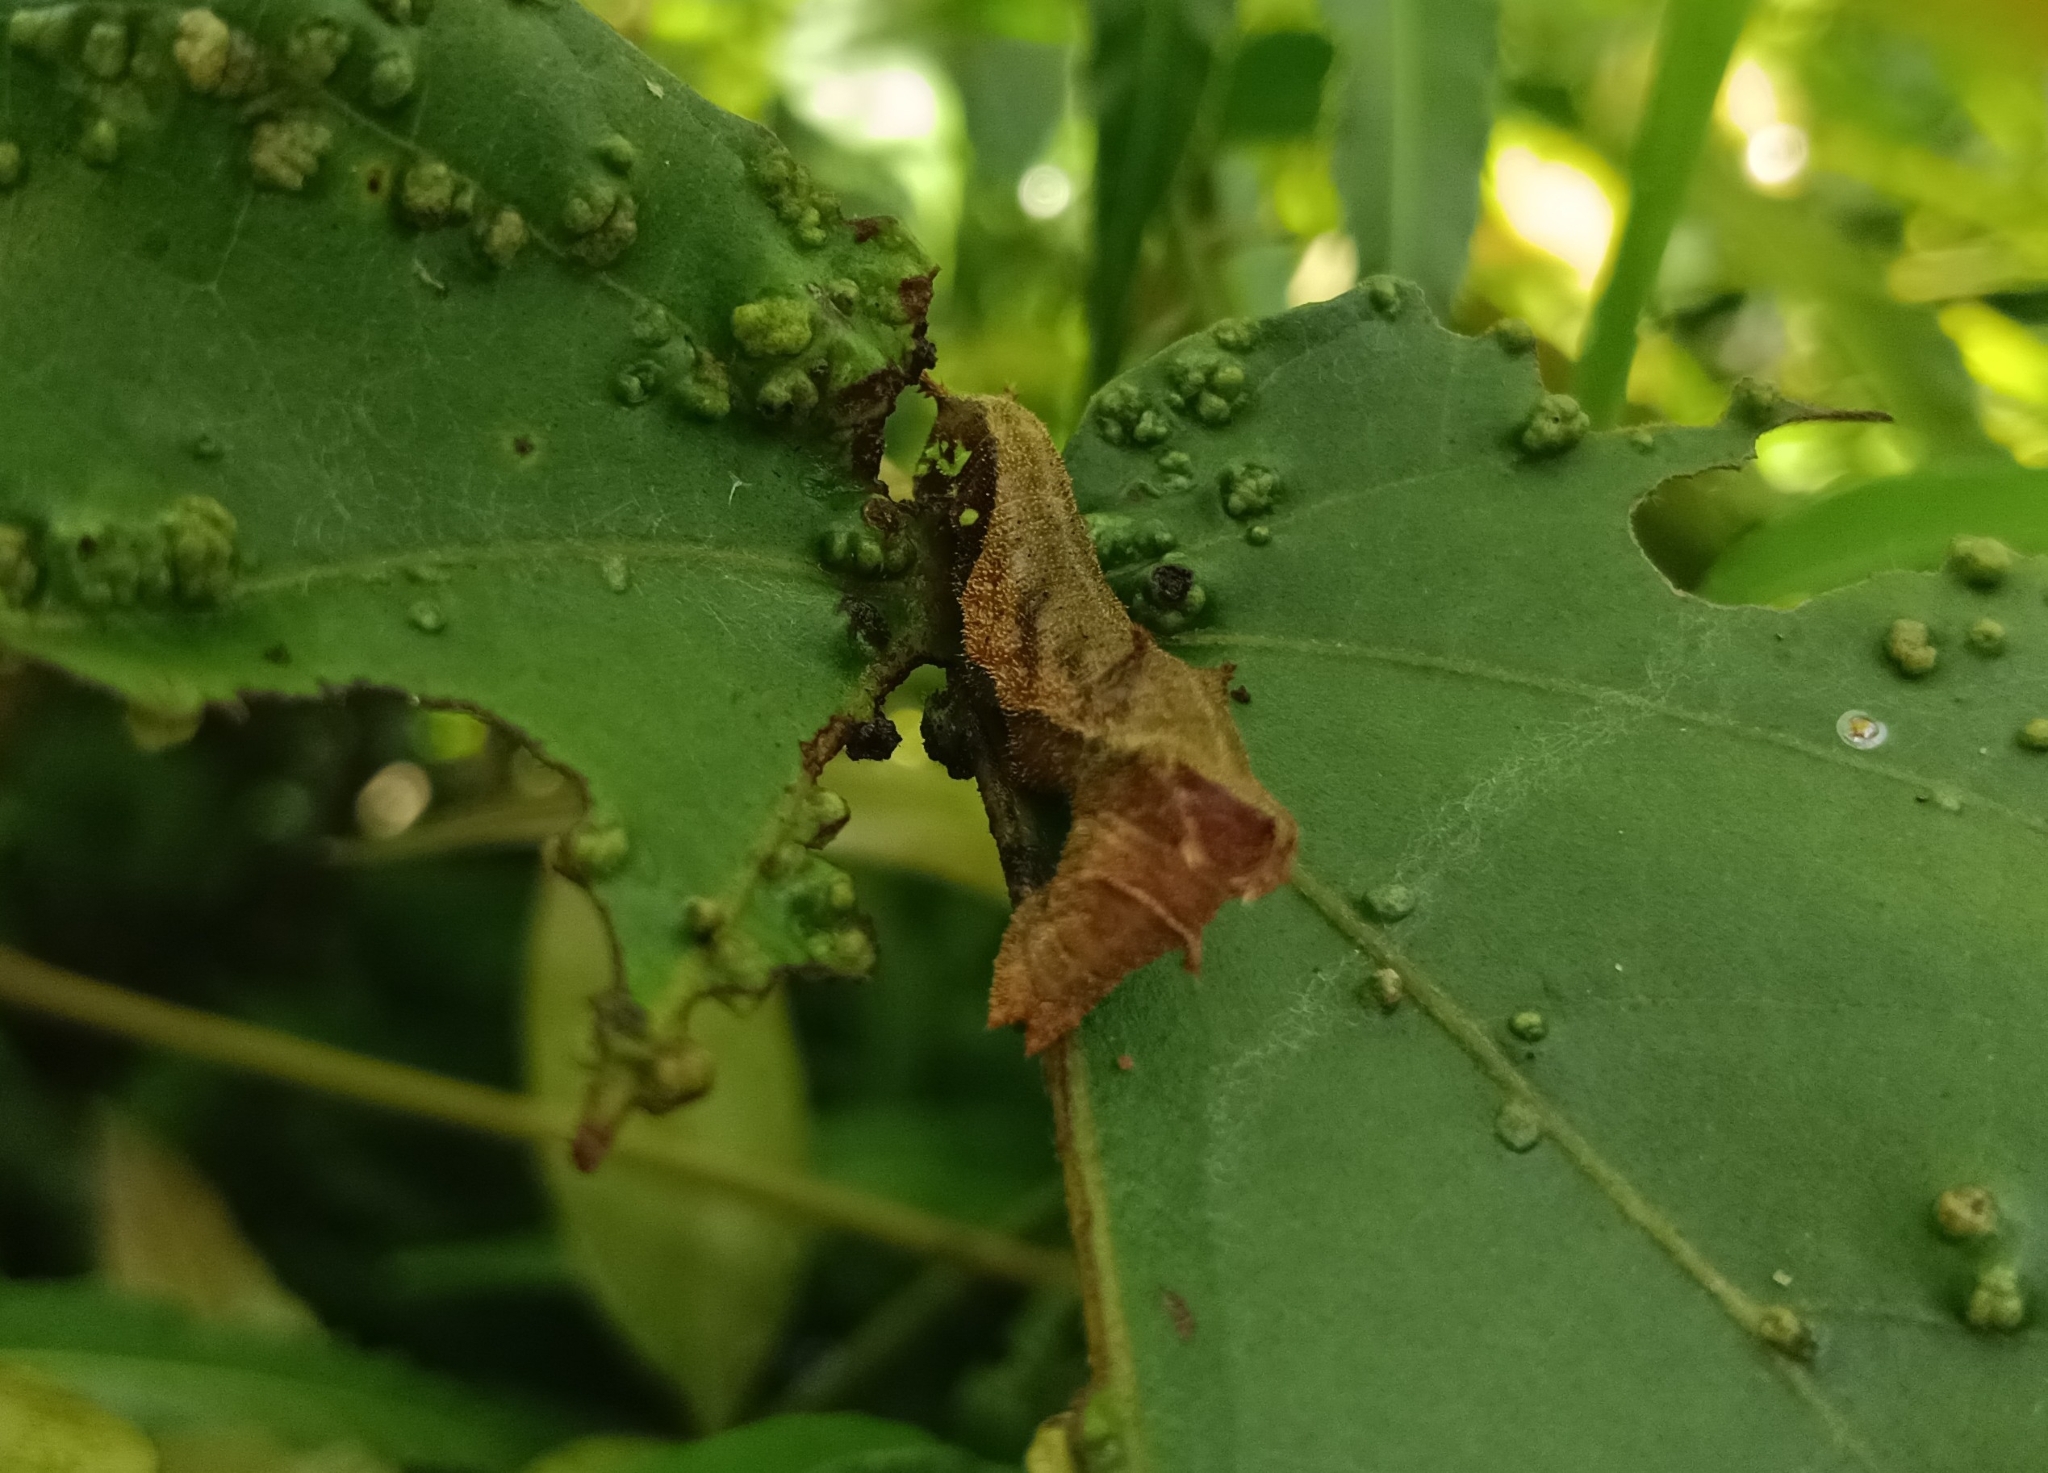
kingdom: Animalia
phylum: Arthropoda
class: Insecta
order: Lepidoptera
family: Nymphalidae
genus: Neptis
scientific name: Neptis jumbah
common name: Chestnut-streaked sailer
